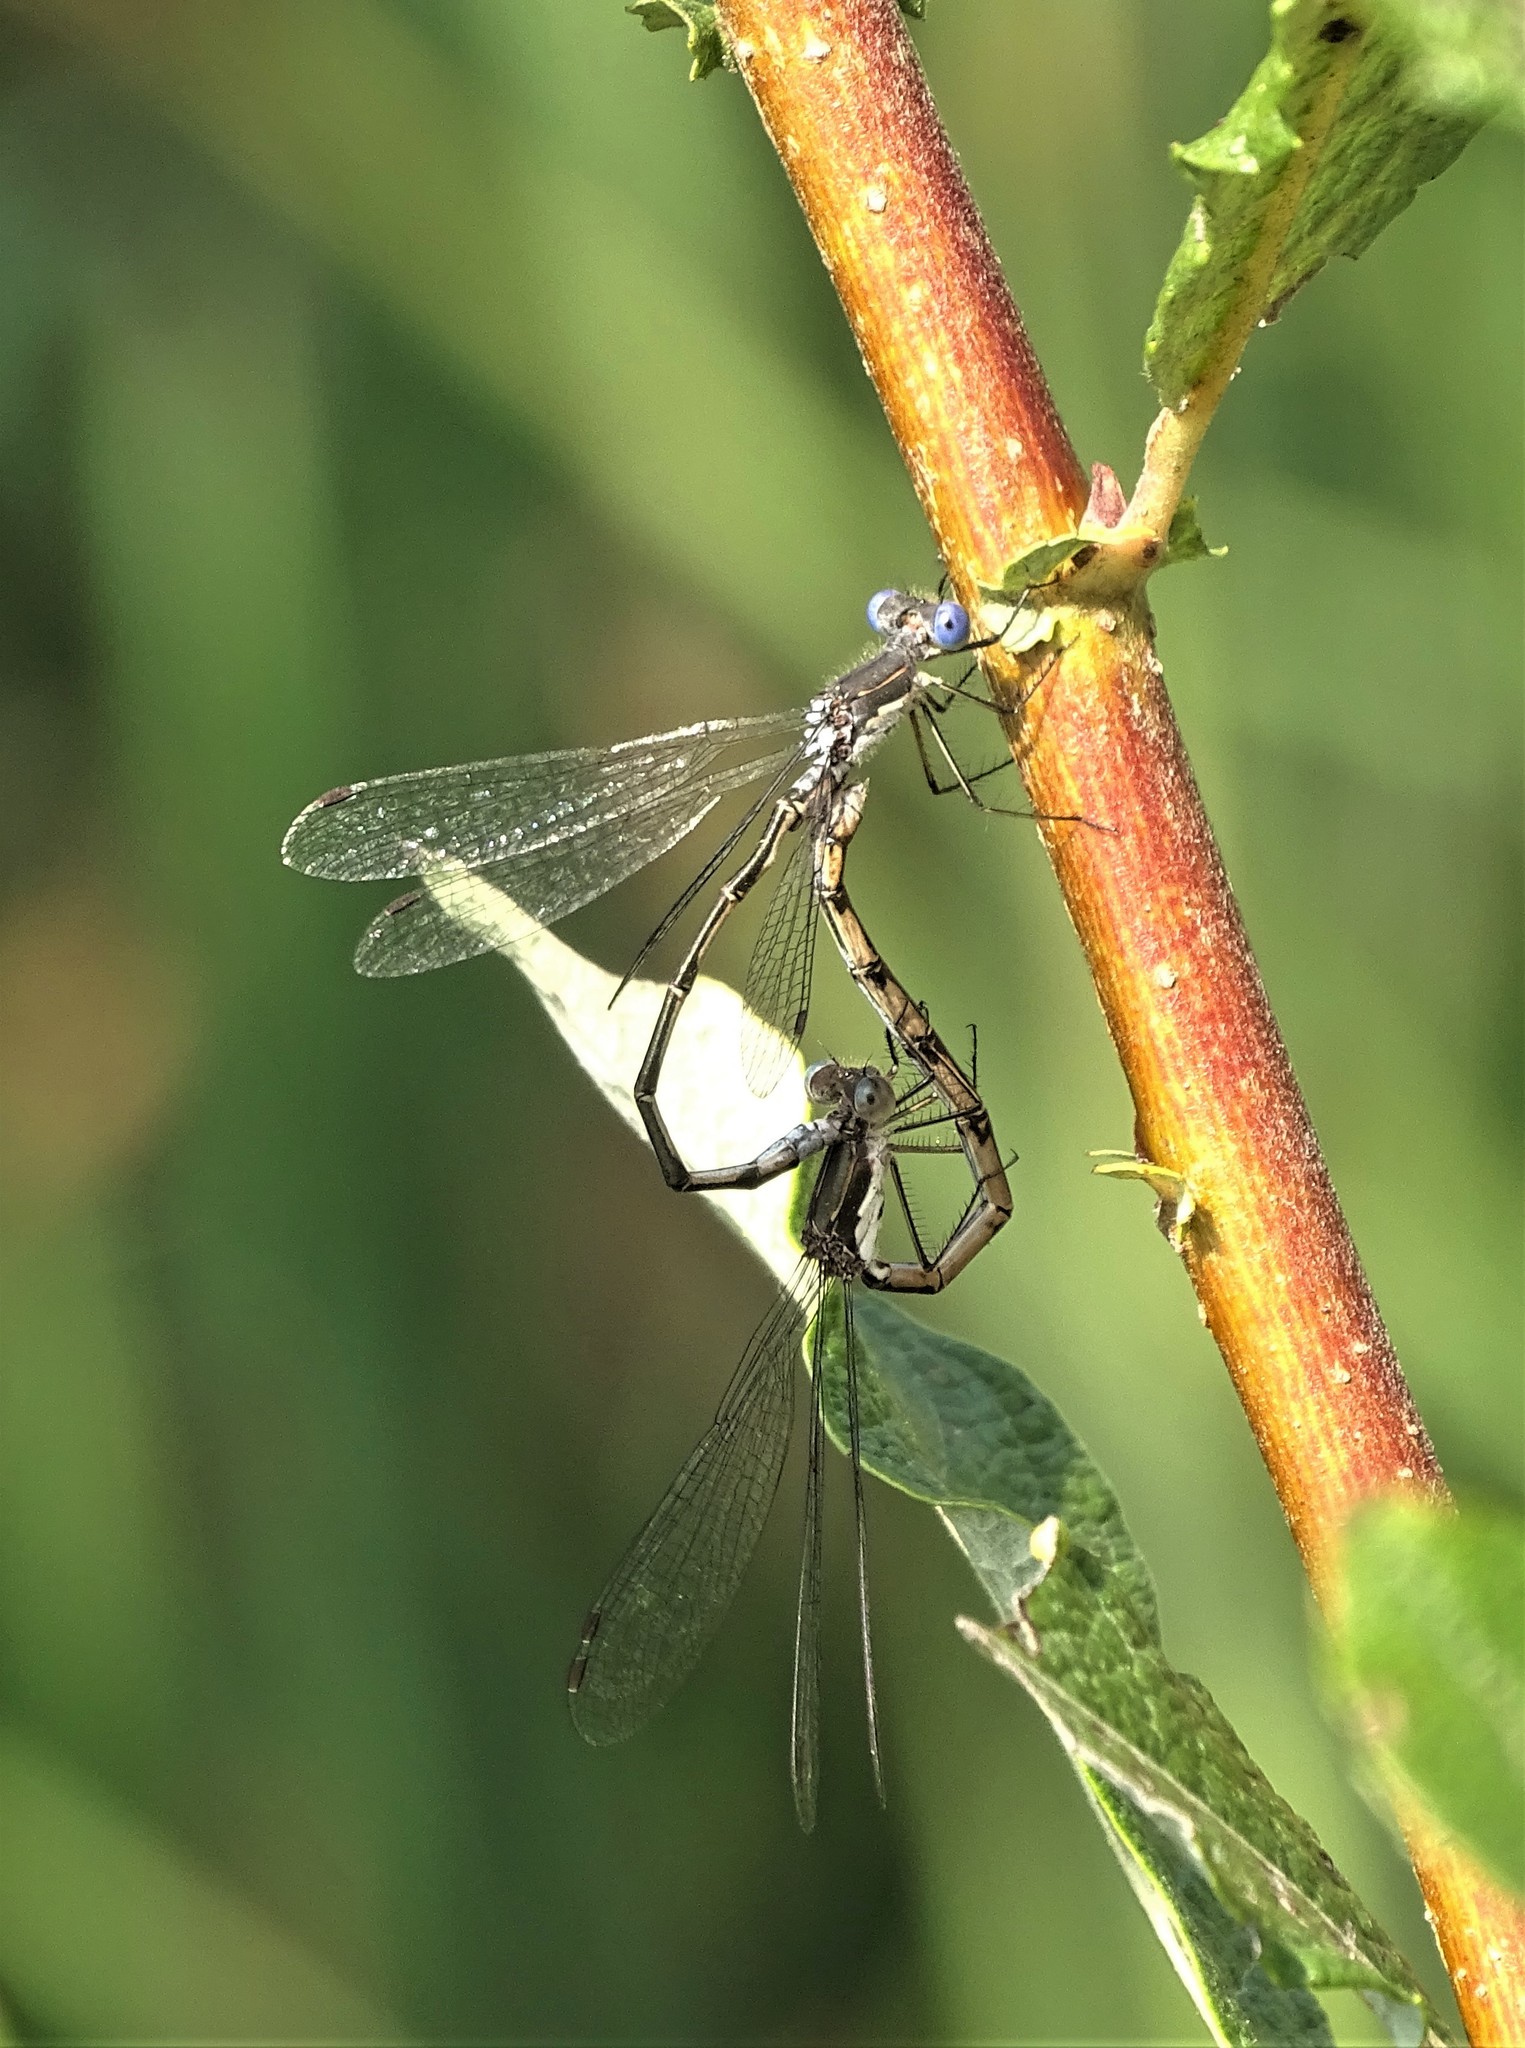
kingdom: Animalia
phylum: Arthropoda
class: Insecta
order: Odonata
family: Lestidae
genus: Lestes
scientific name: Lestes congener
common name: Spotted spreadwing
